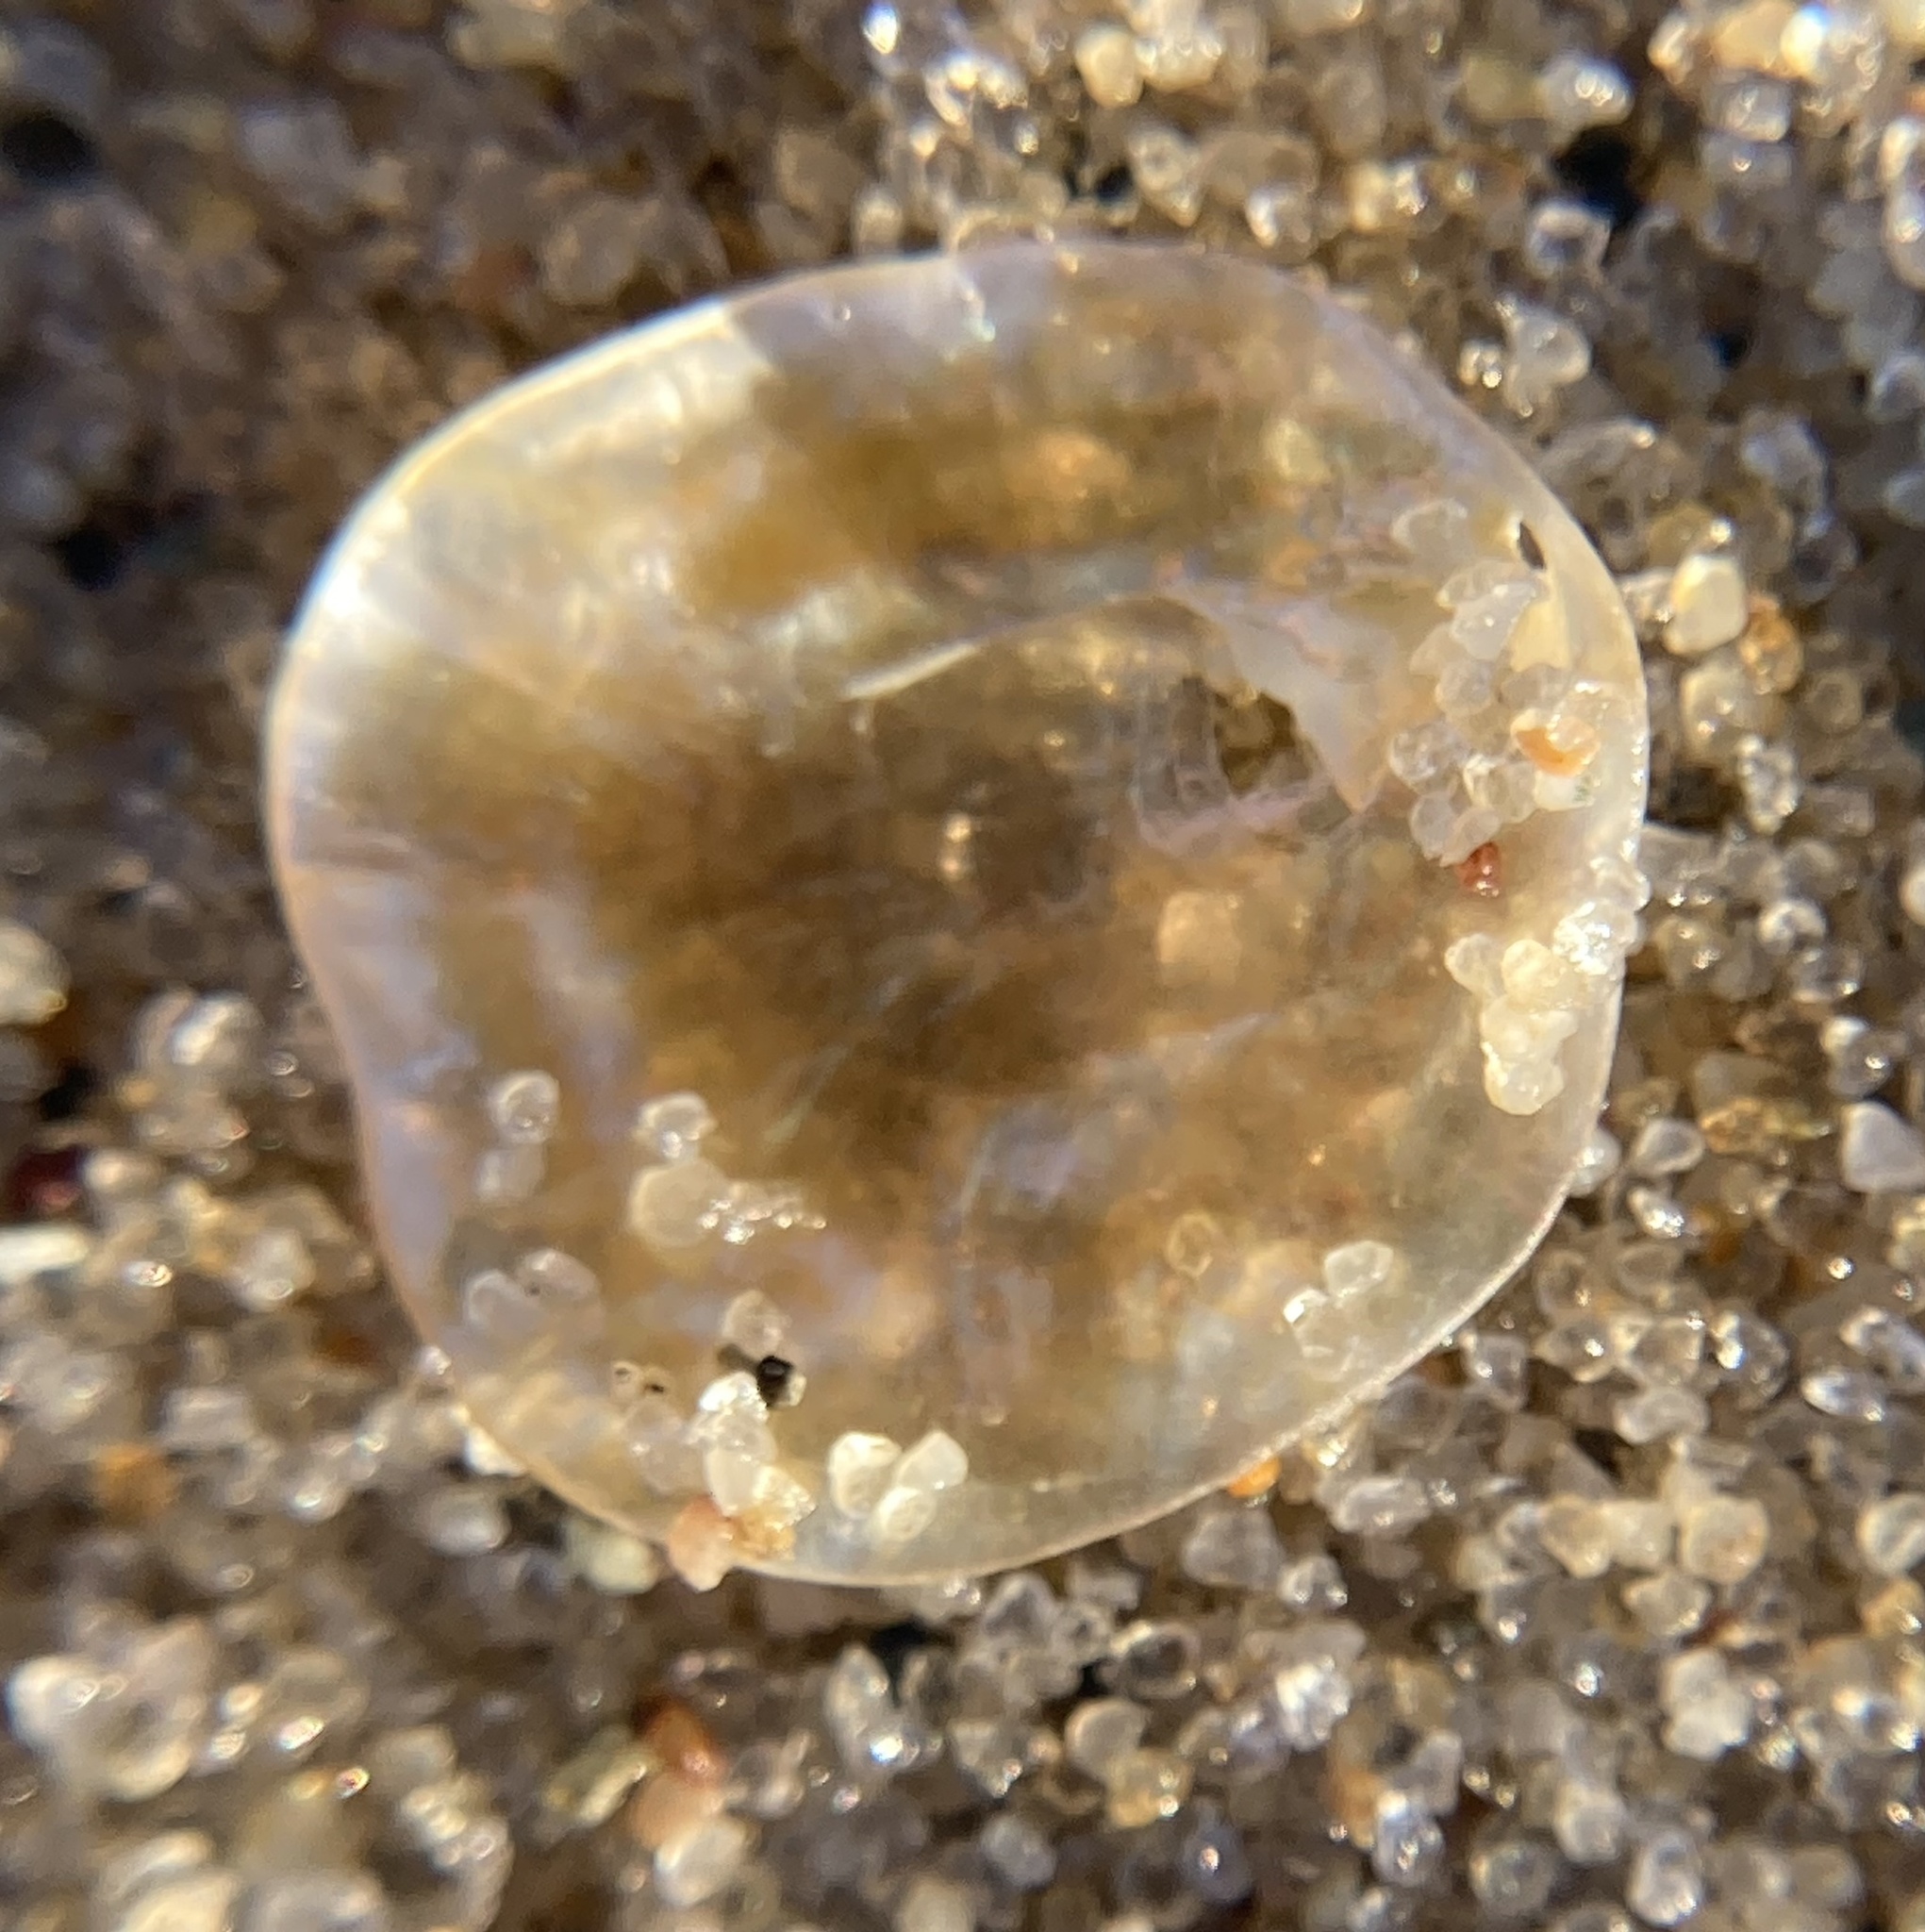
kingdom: Animalia
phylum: Mollusca
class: Bivalvia
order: Pectinida
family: Anomiidae
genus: Anomia
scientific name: Anomia simplex
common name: Common jingle shell
